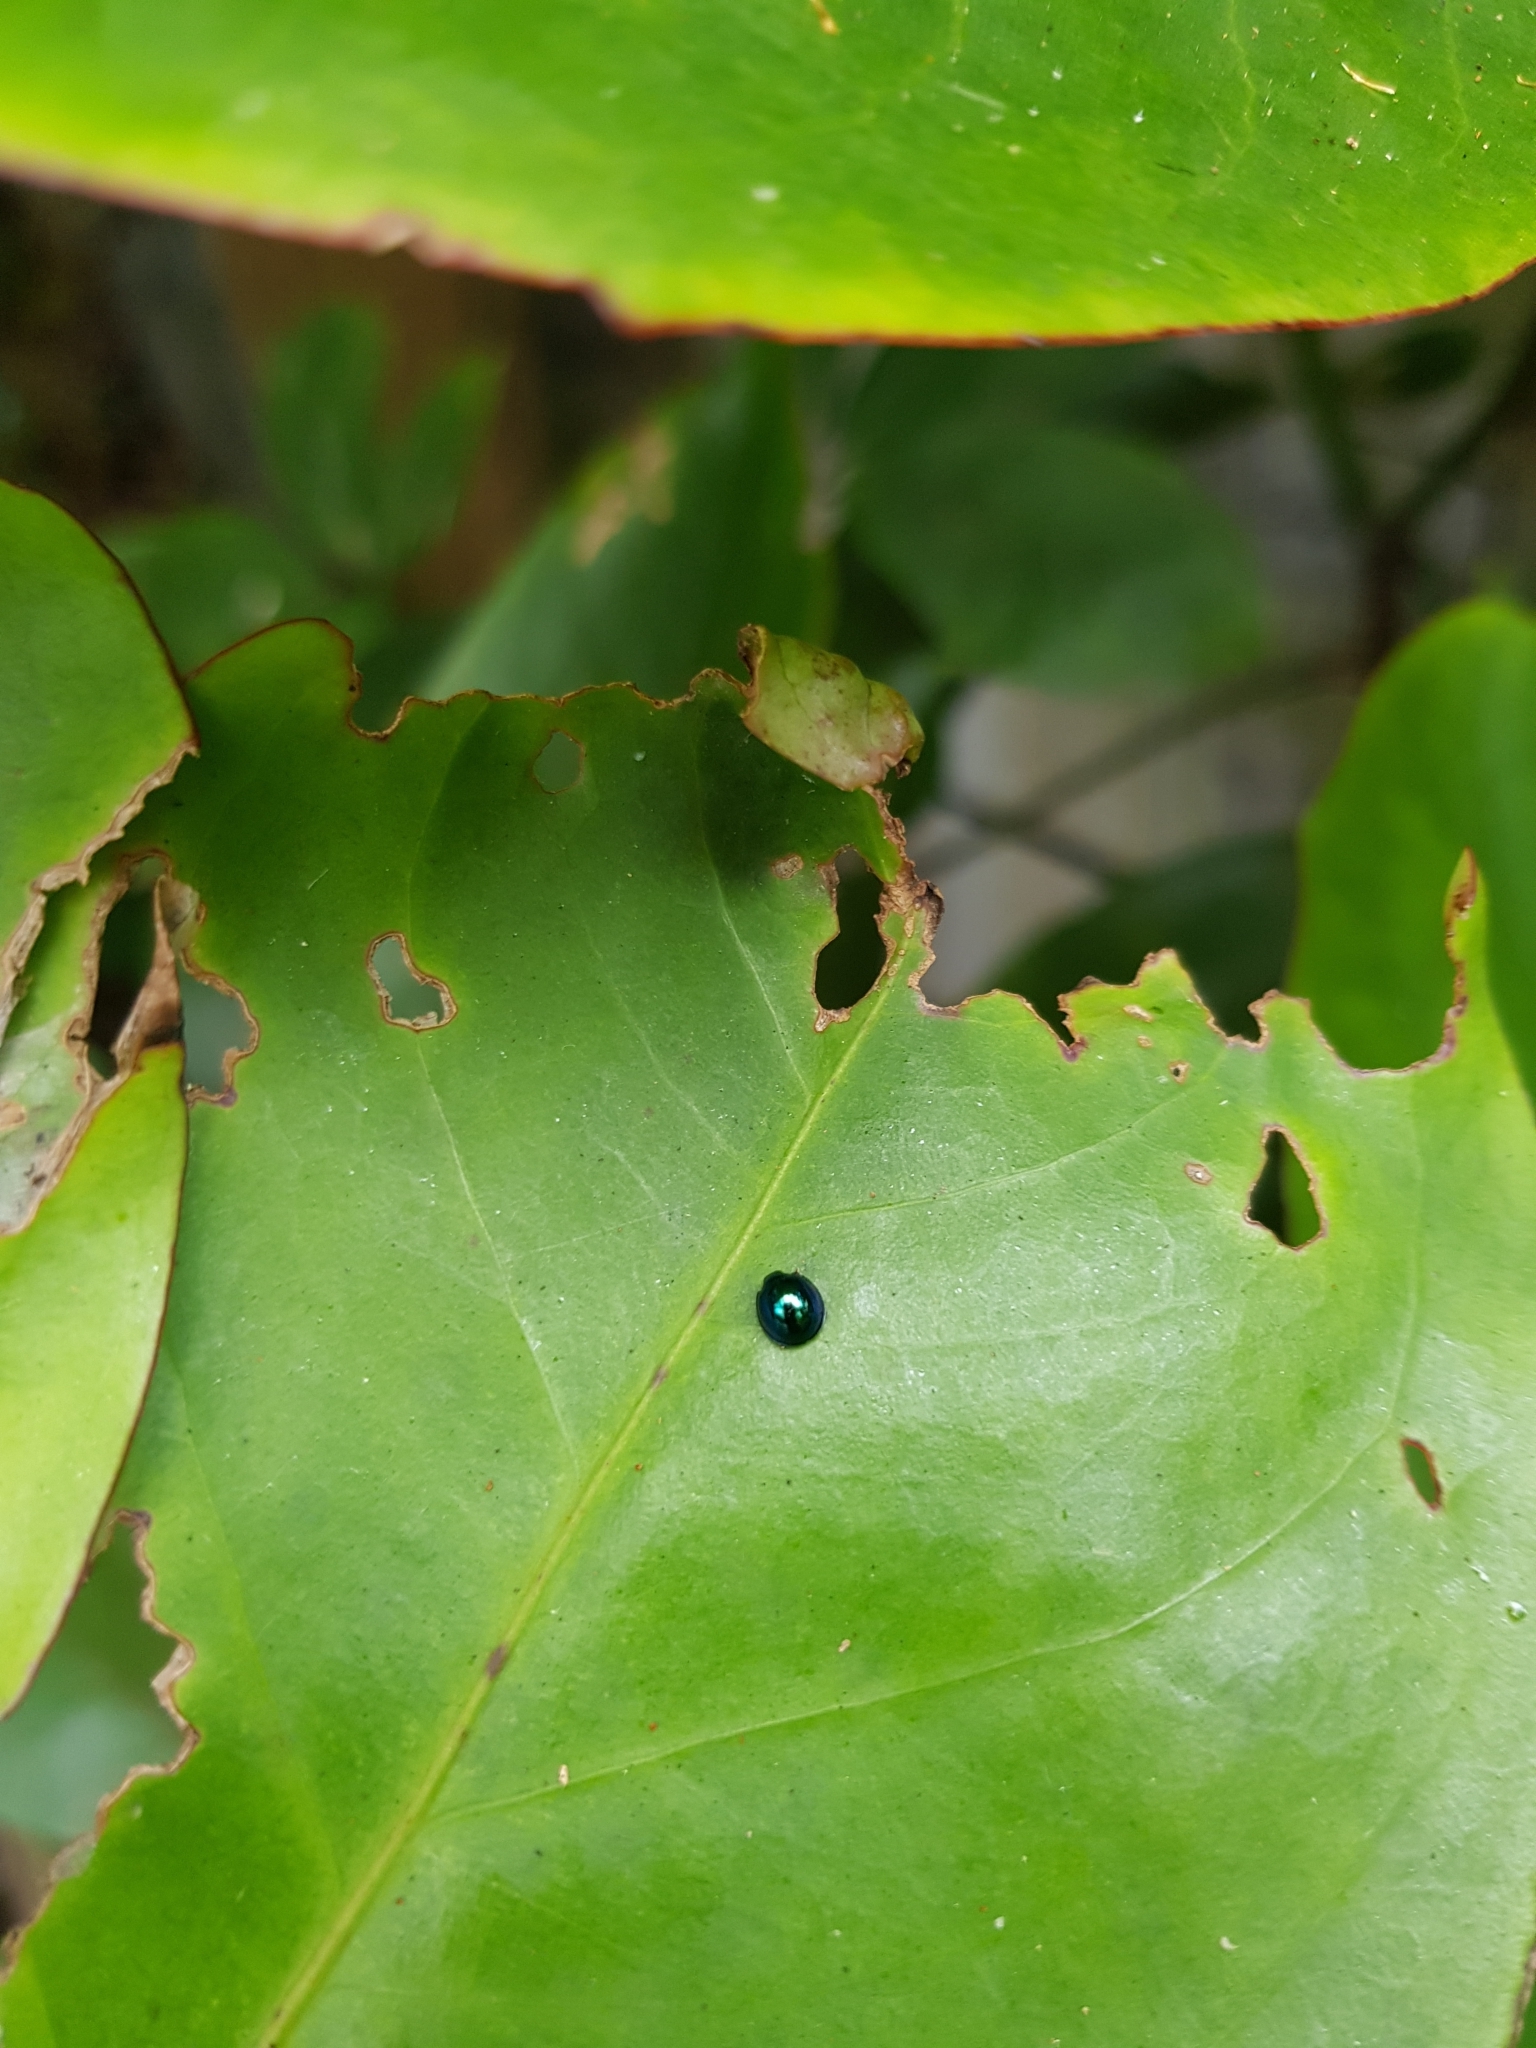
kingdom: Animalia
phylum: Arthropoda
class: Insecta
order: Coleoptera
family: Coccinellidae
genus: Halmus
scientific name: Halmus chalybeus
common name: Steel blue ladybird beetle
